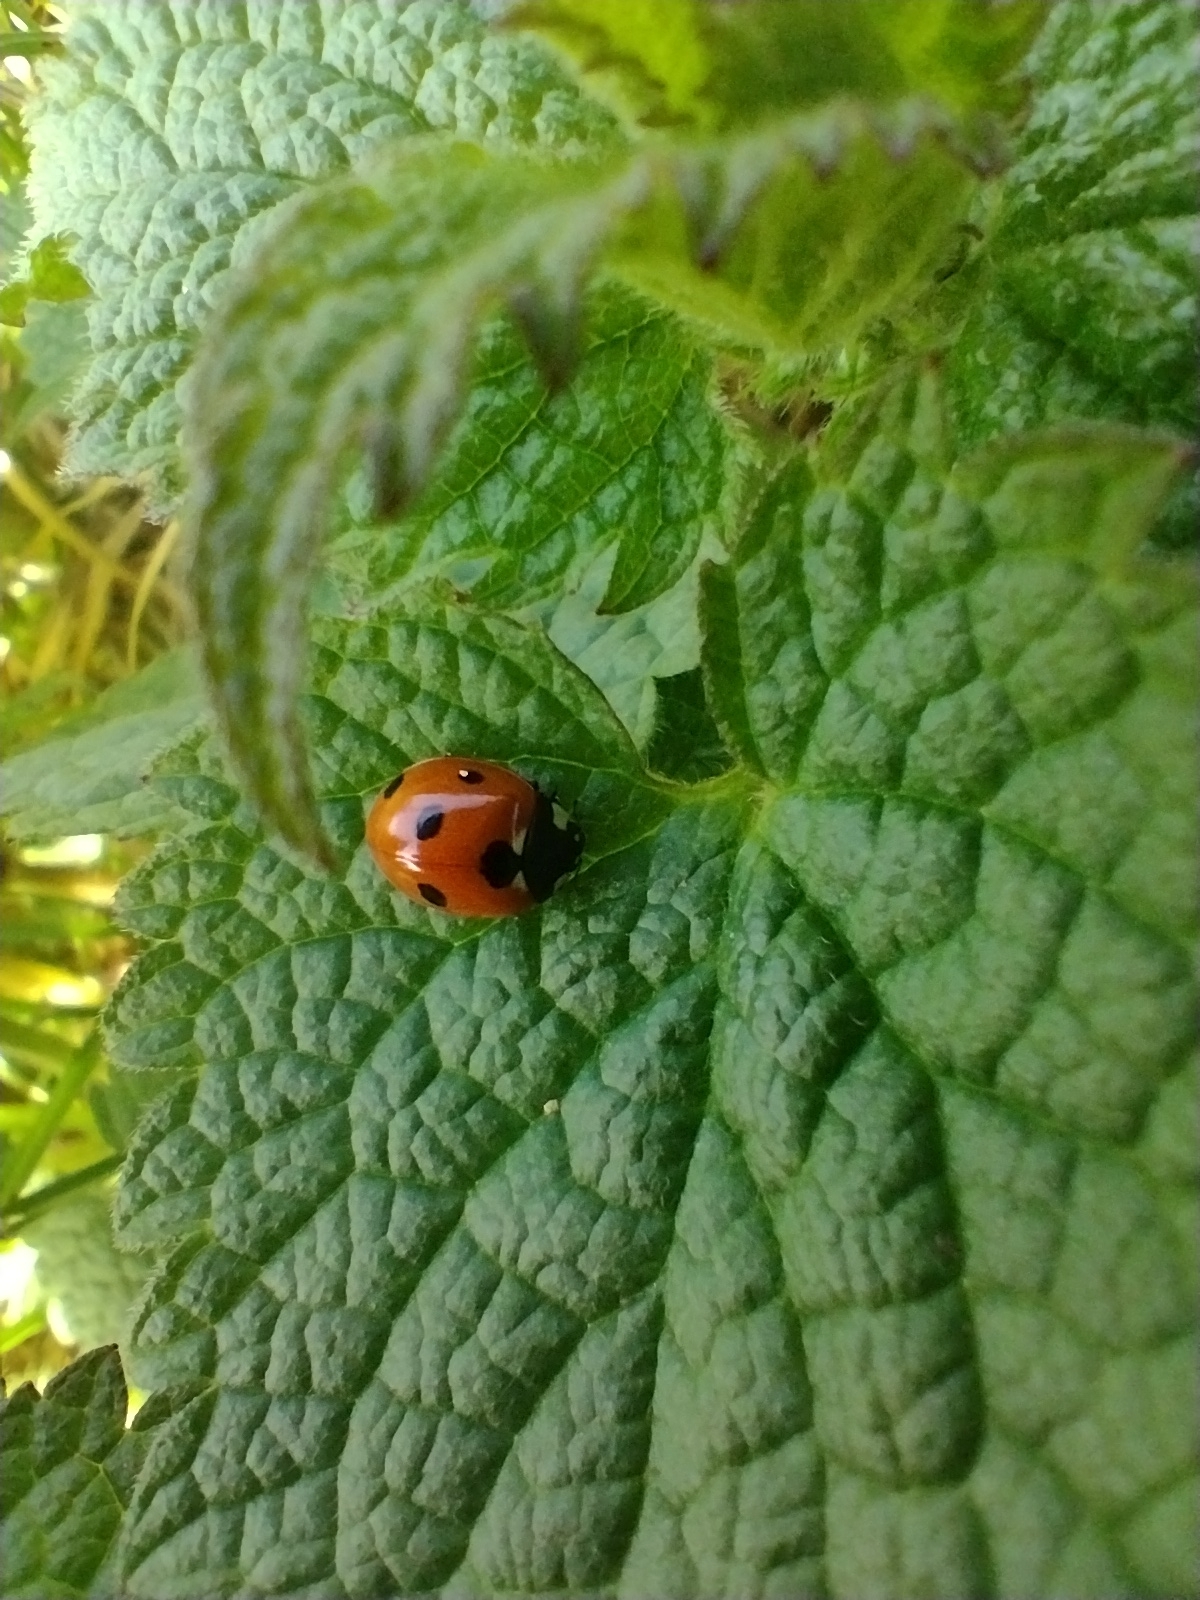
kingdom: Animalia
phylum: Arthropoda
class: Insecta
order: Coleoptera
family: Coccinellidae
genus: Coccinella
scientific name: Coccinella septempunctata
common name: Sevenspotted lady beetle
